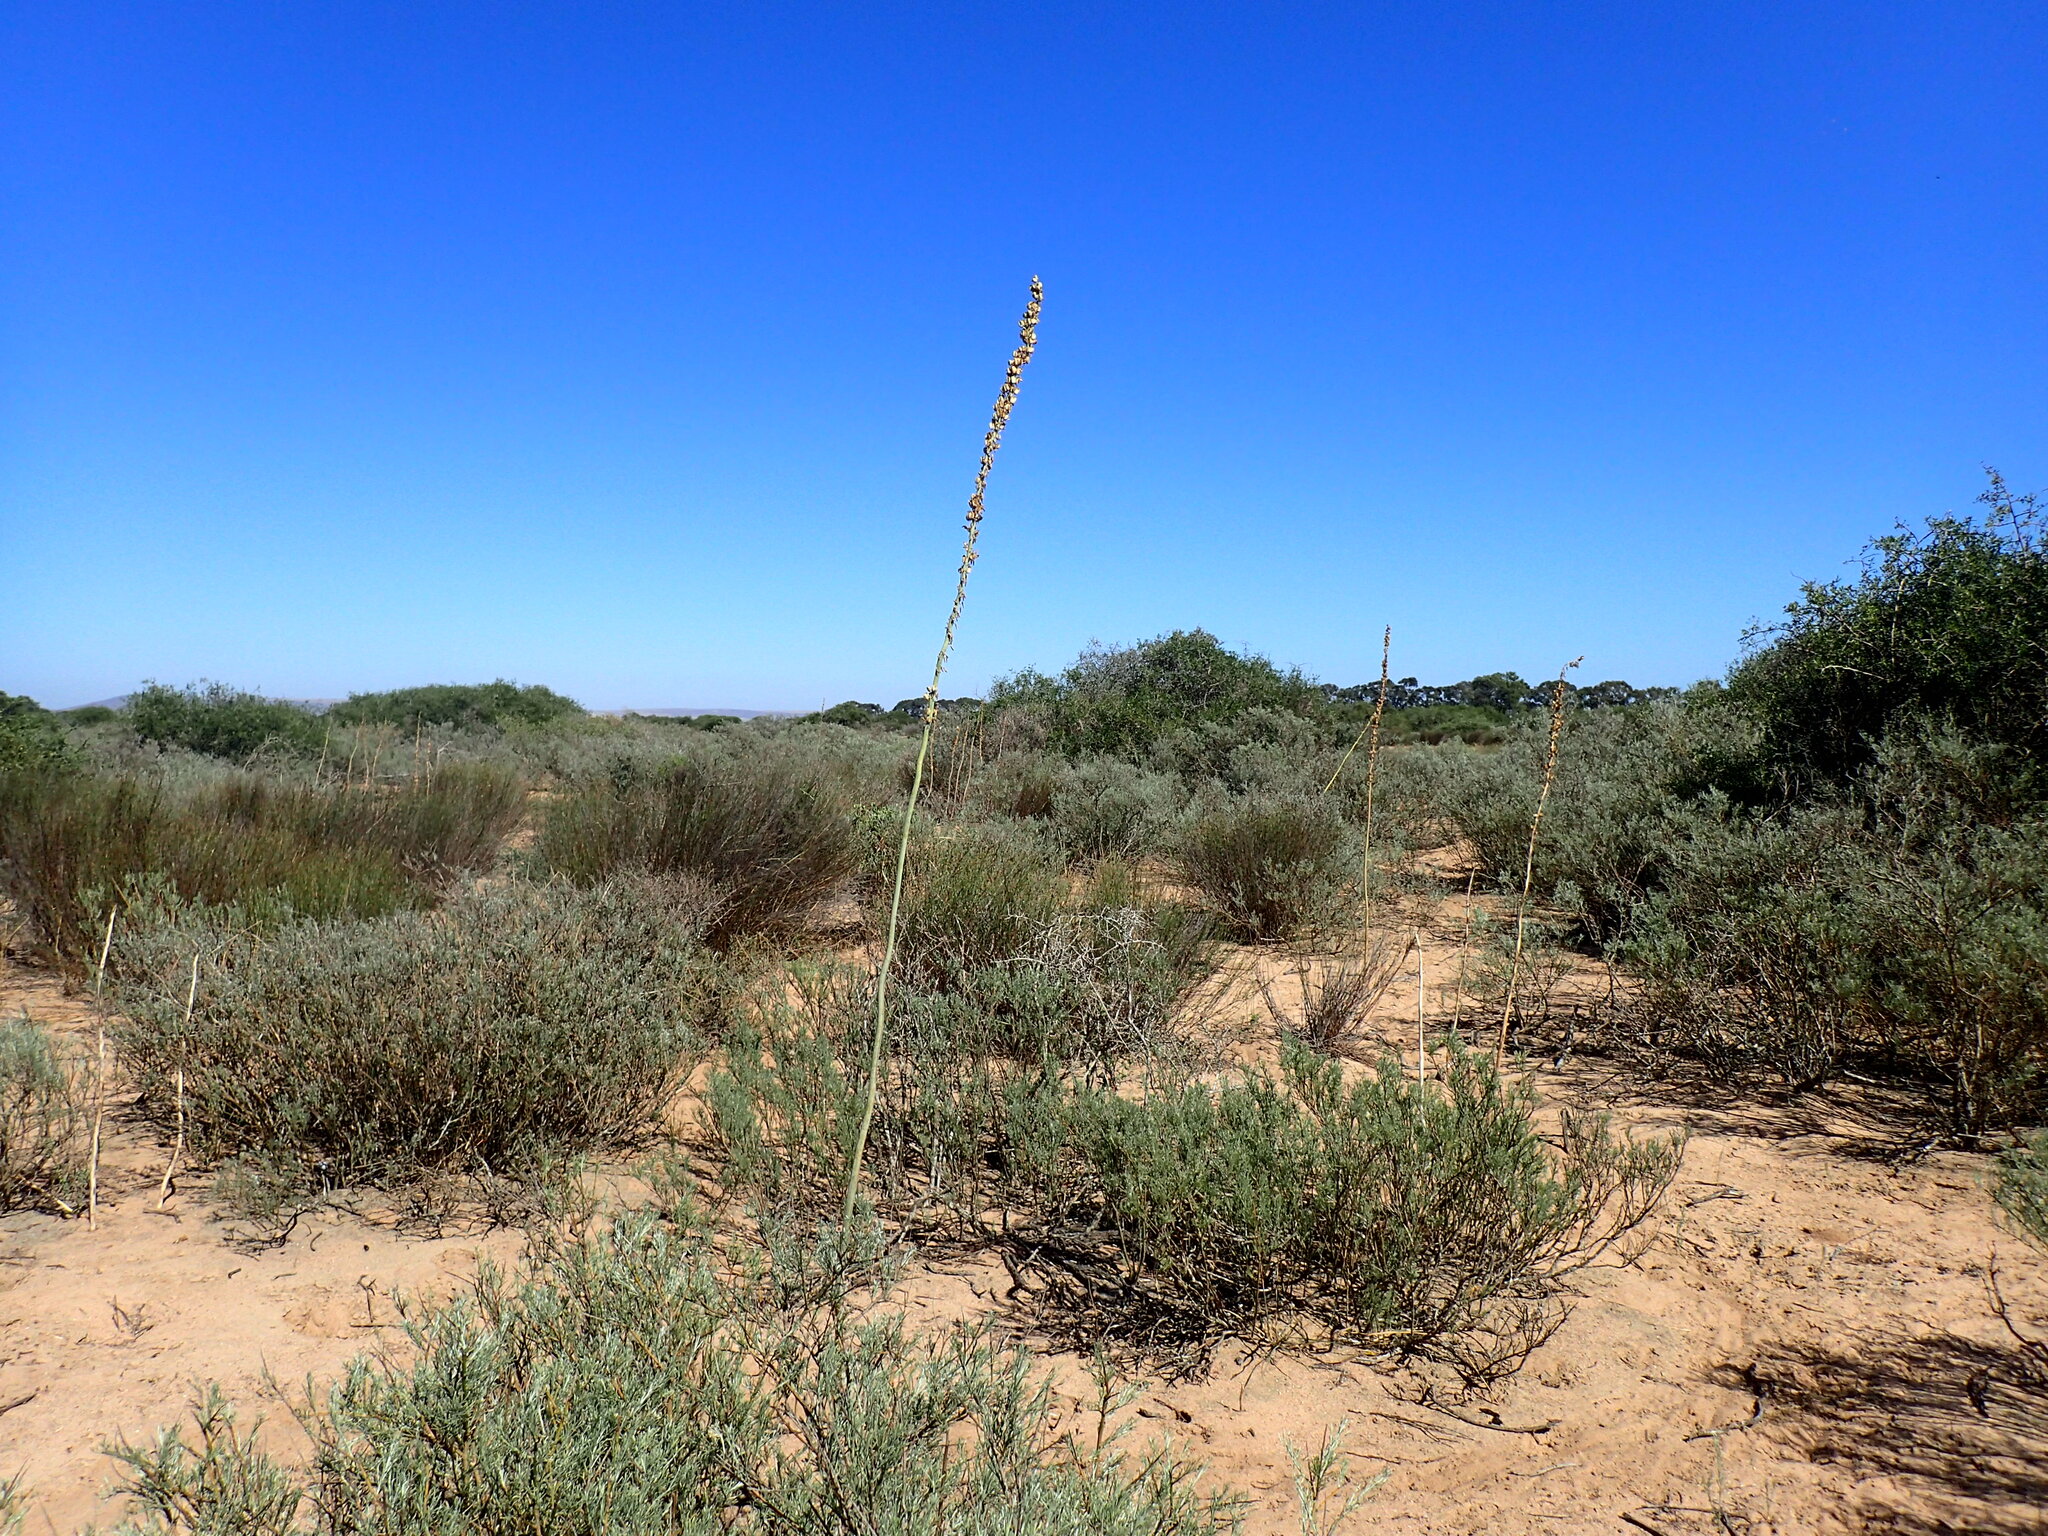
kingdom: Plantae
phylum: Tracheophyta
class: Liliopsida
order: Asparagales
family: Asparagaceae
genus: Drimia
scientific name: Drimia capensis
